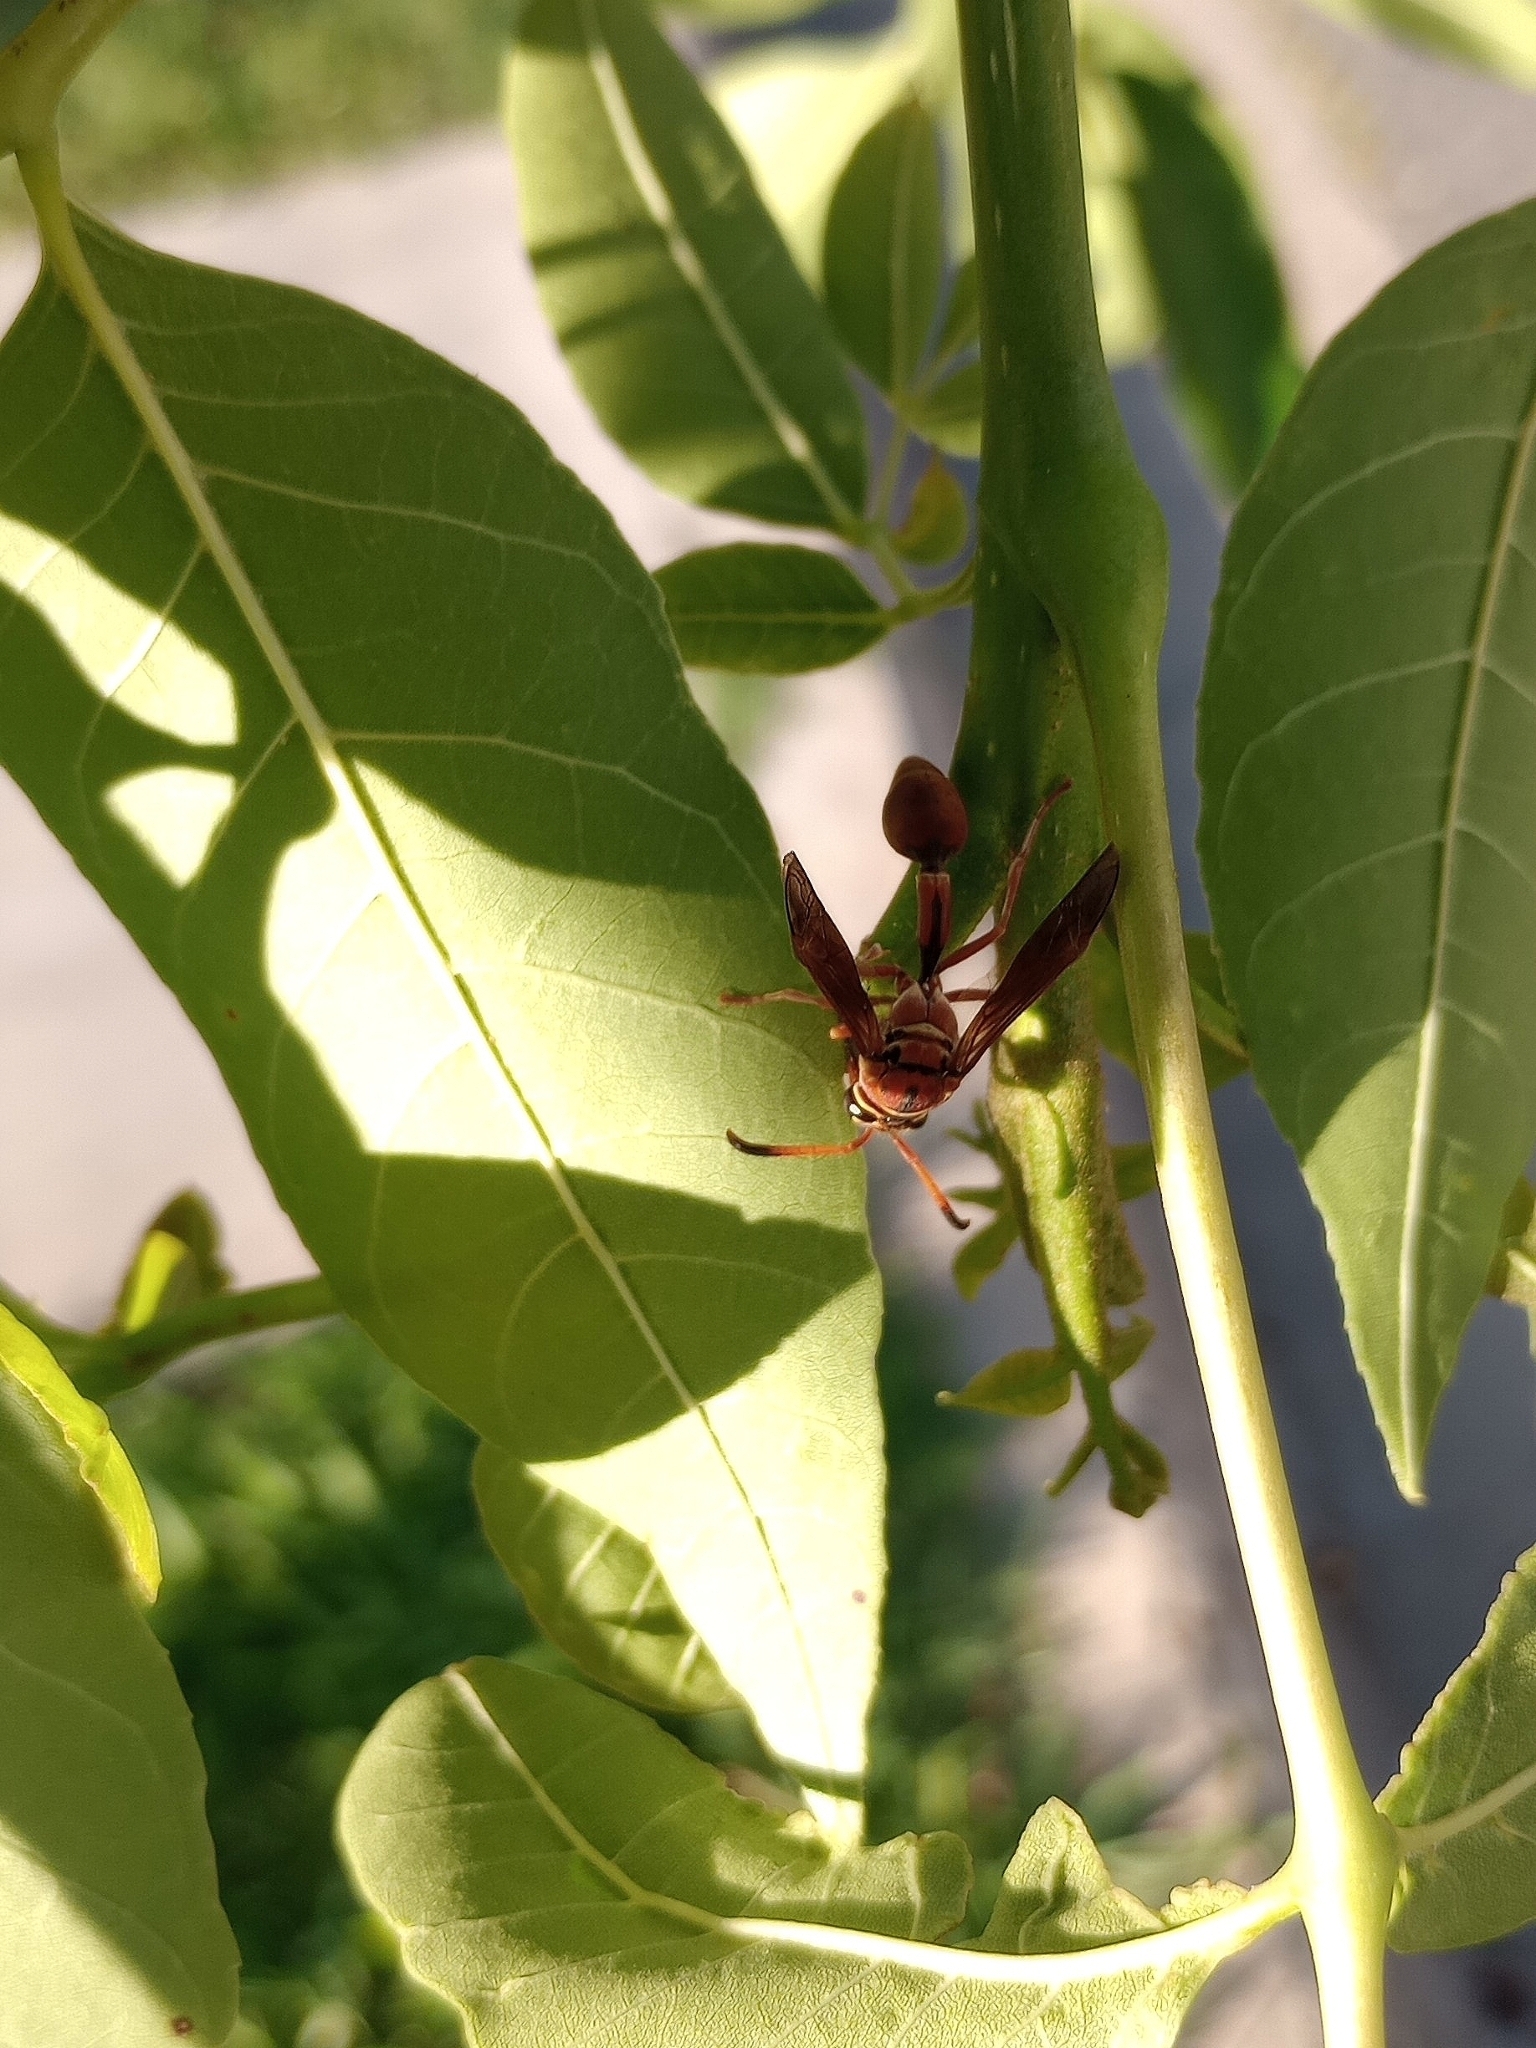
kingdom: Animalia
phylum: Arthropoda
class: Insecta
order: Hymenoptera
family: Eumenidae
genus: Zeta
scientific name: Zeta argillaceum
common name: Potter wasp
